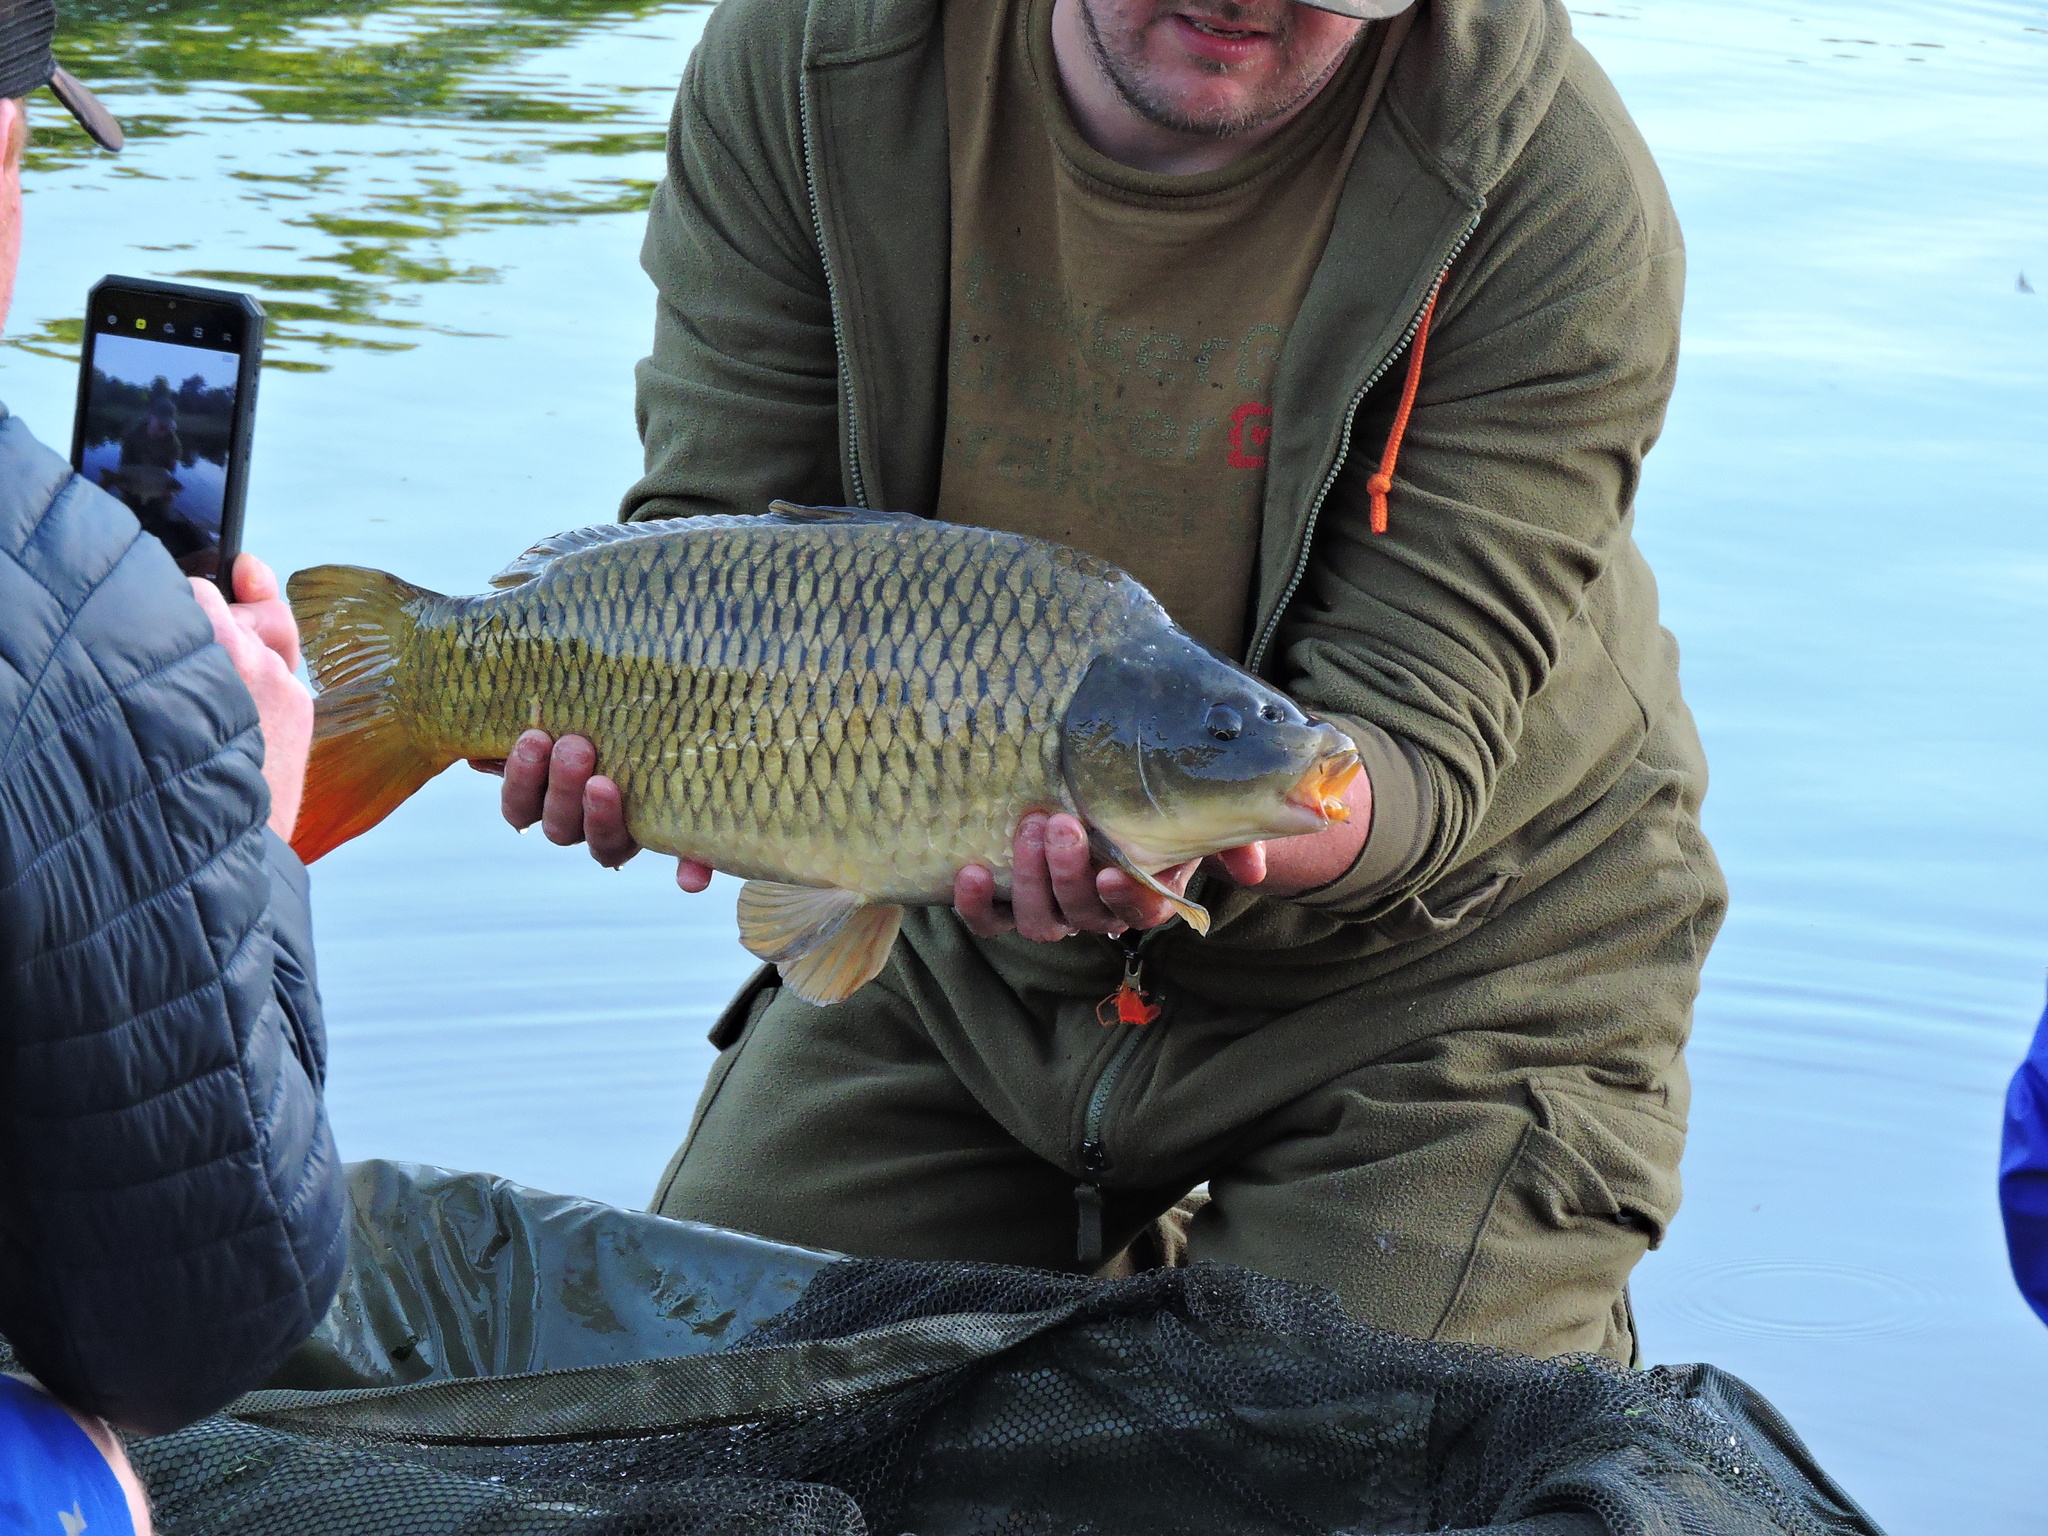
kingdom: Animalia
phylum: Chordata
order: Cypriniformes
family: Cyprinidae
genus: Cyprinus
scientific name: Cyprinus carpio
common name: Common carp
